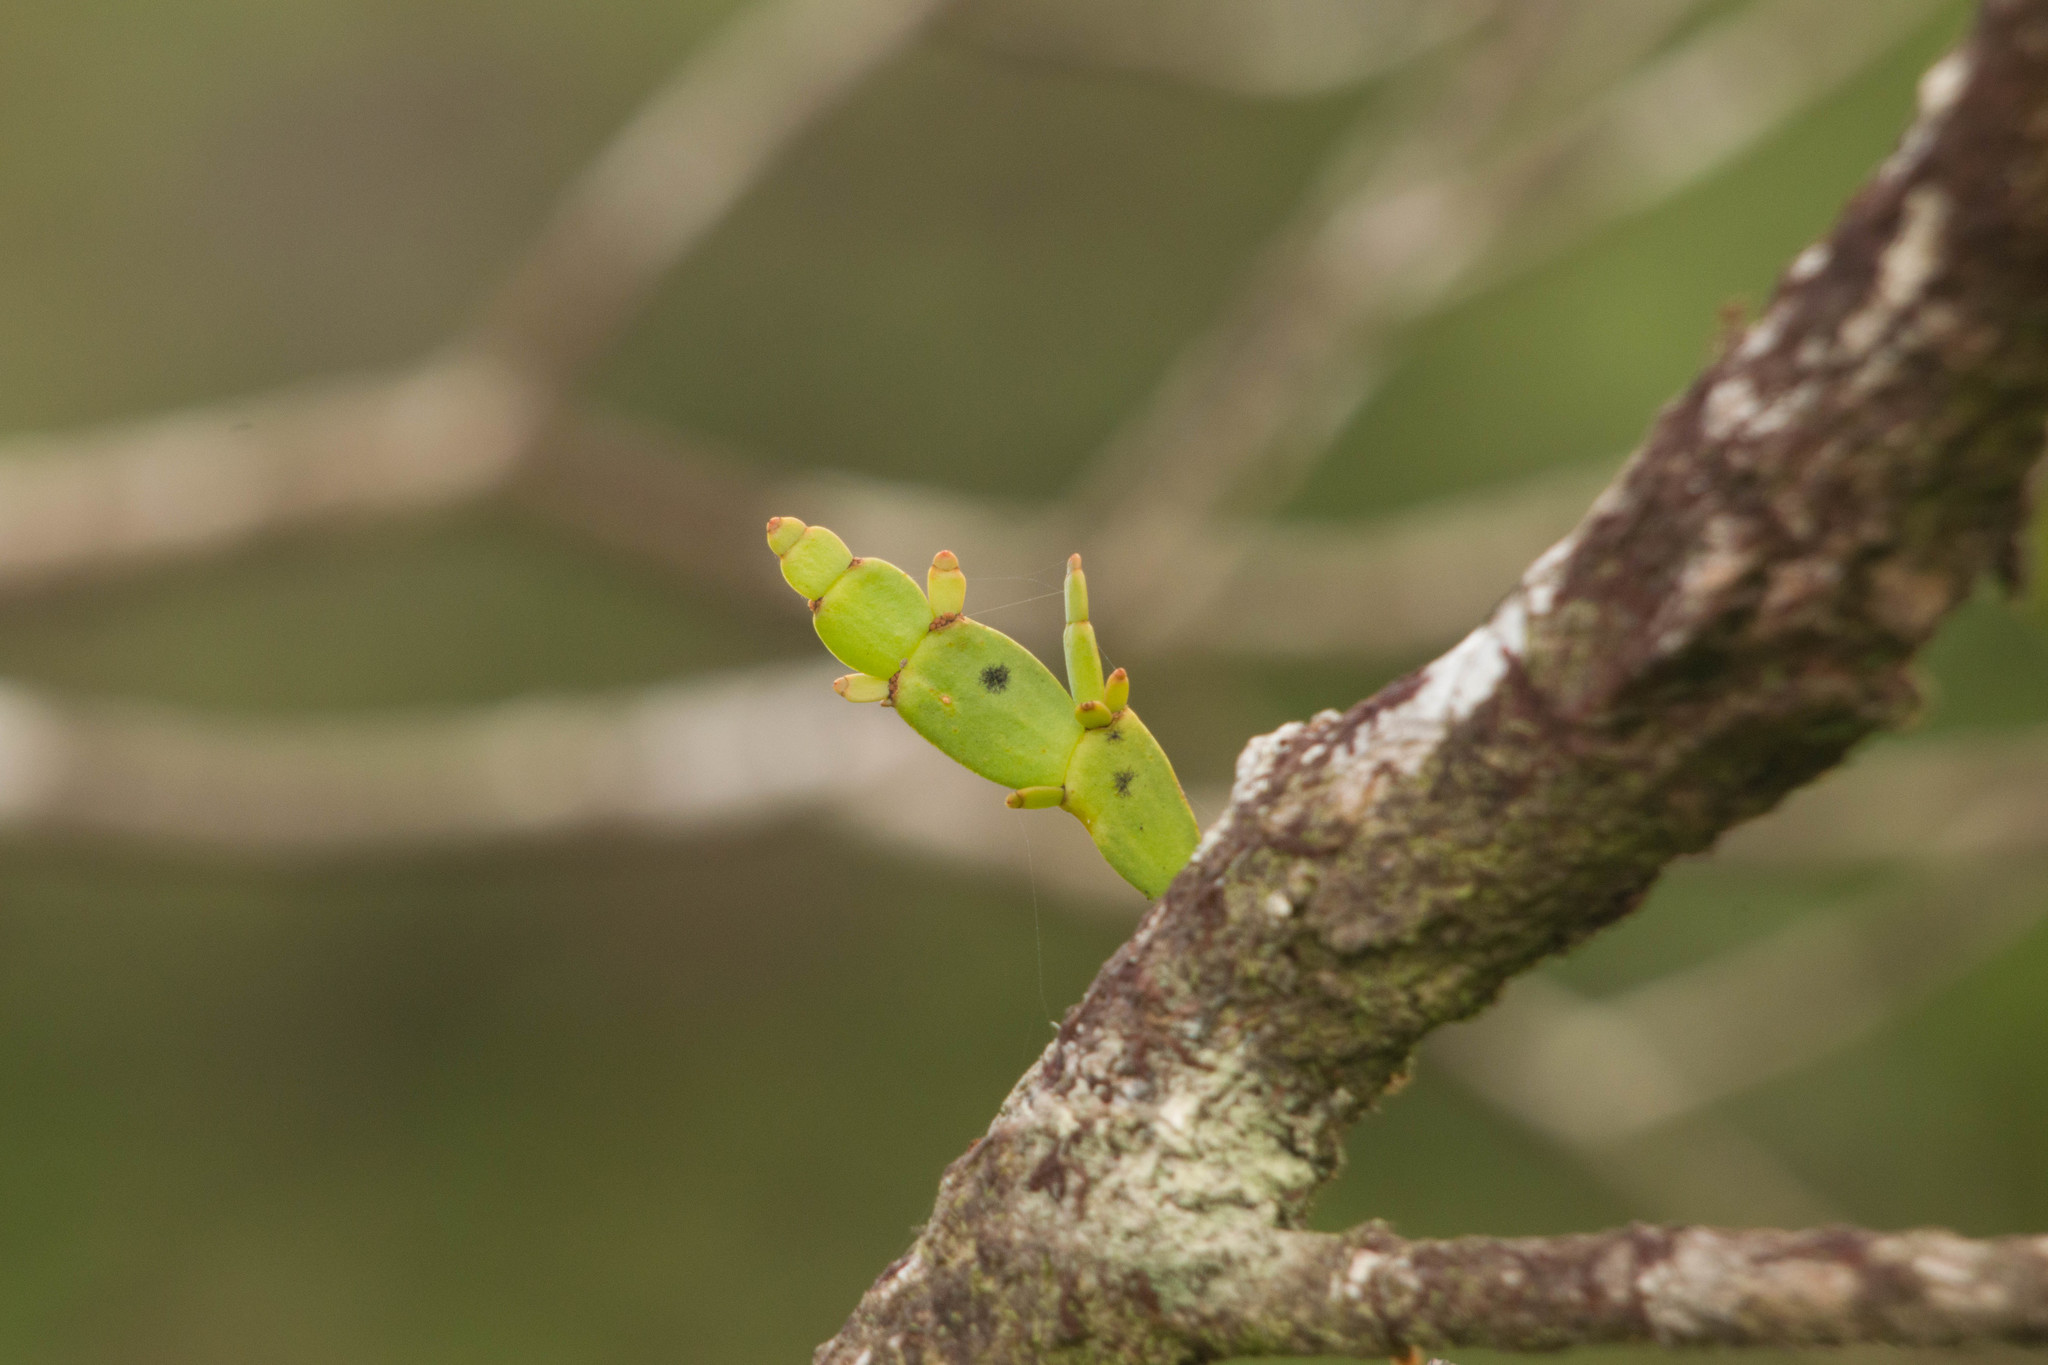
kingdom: Plantae
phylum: Tracheophyta
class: Magnoliopsida
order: Santalales
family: Viscaceae
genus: Korthalsella
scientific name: Korthalsella complanata
